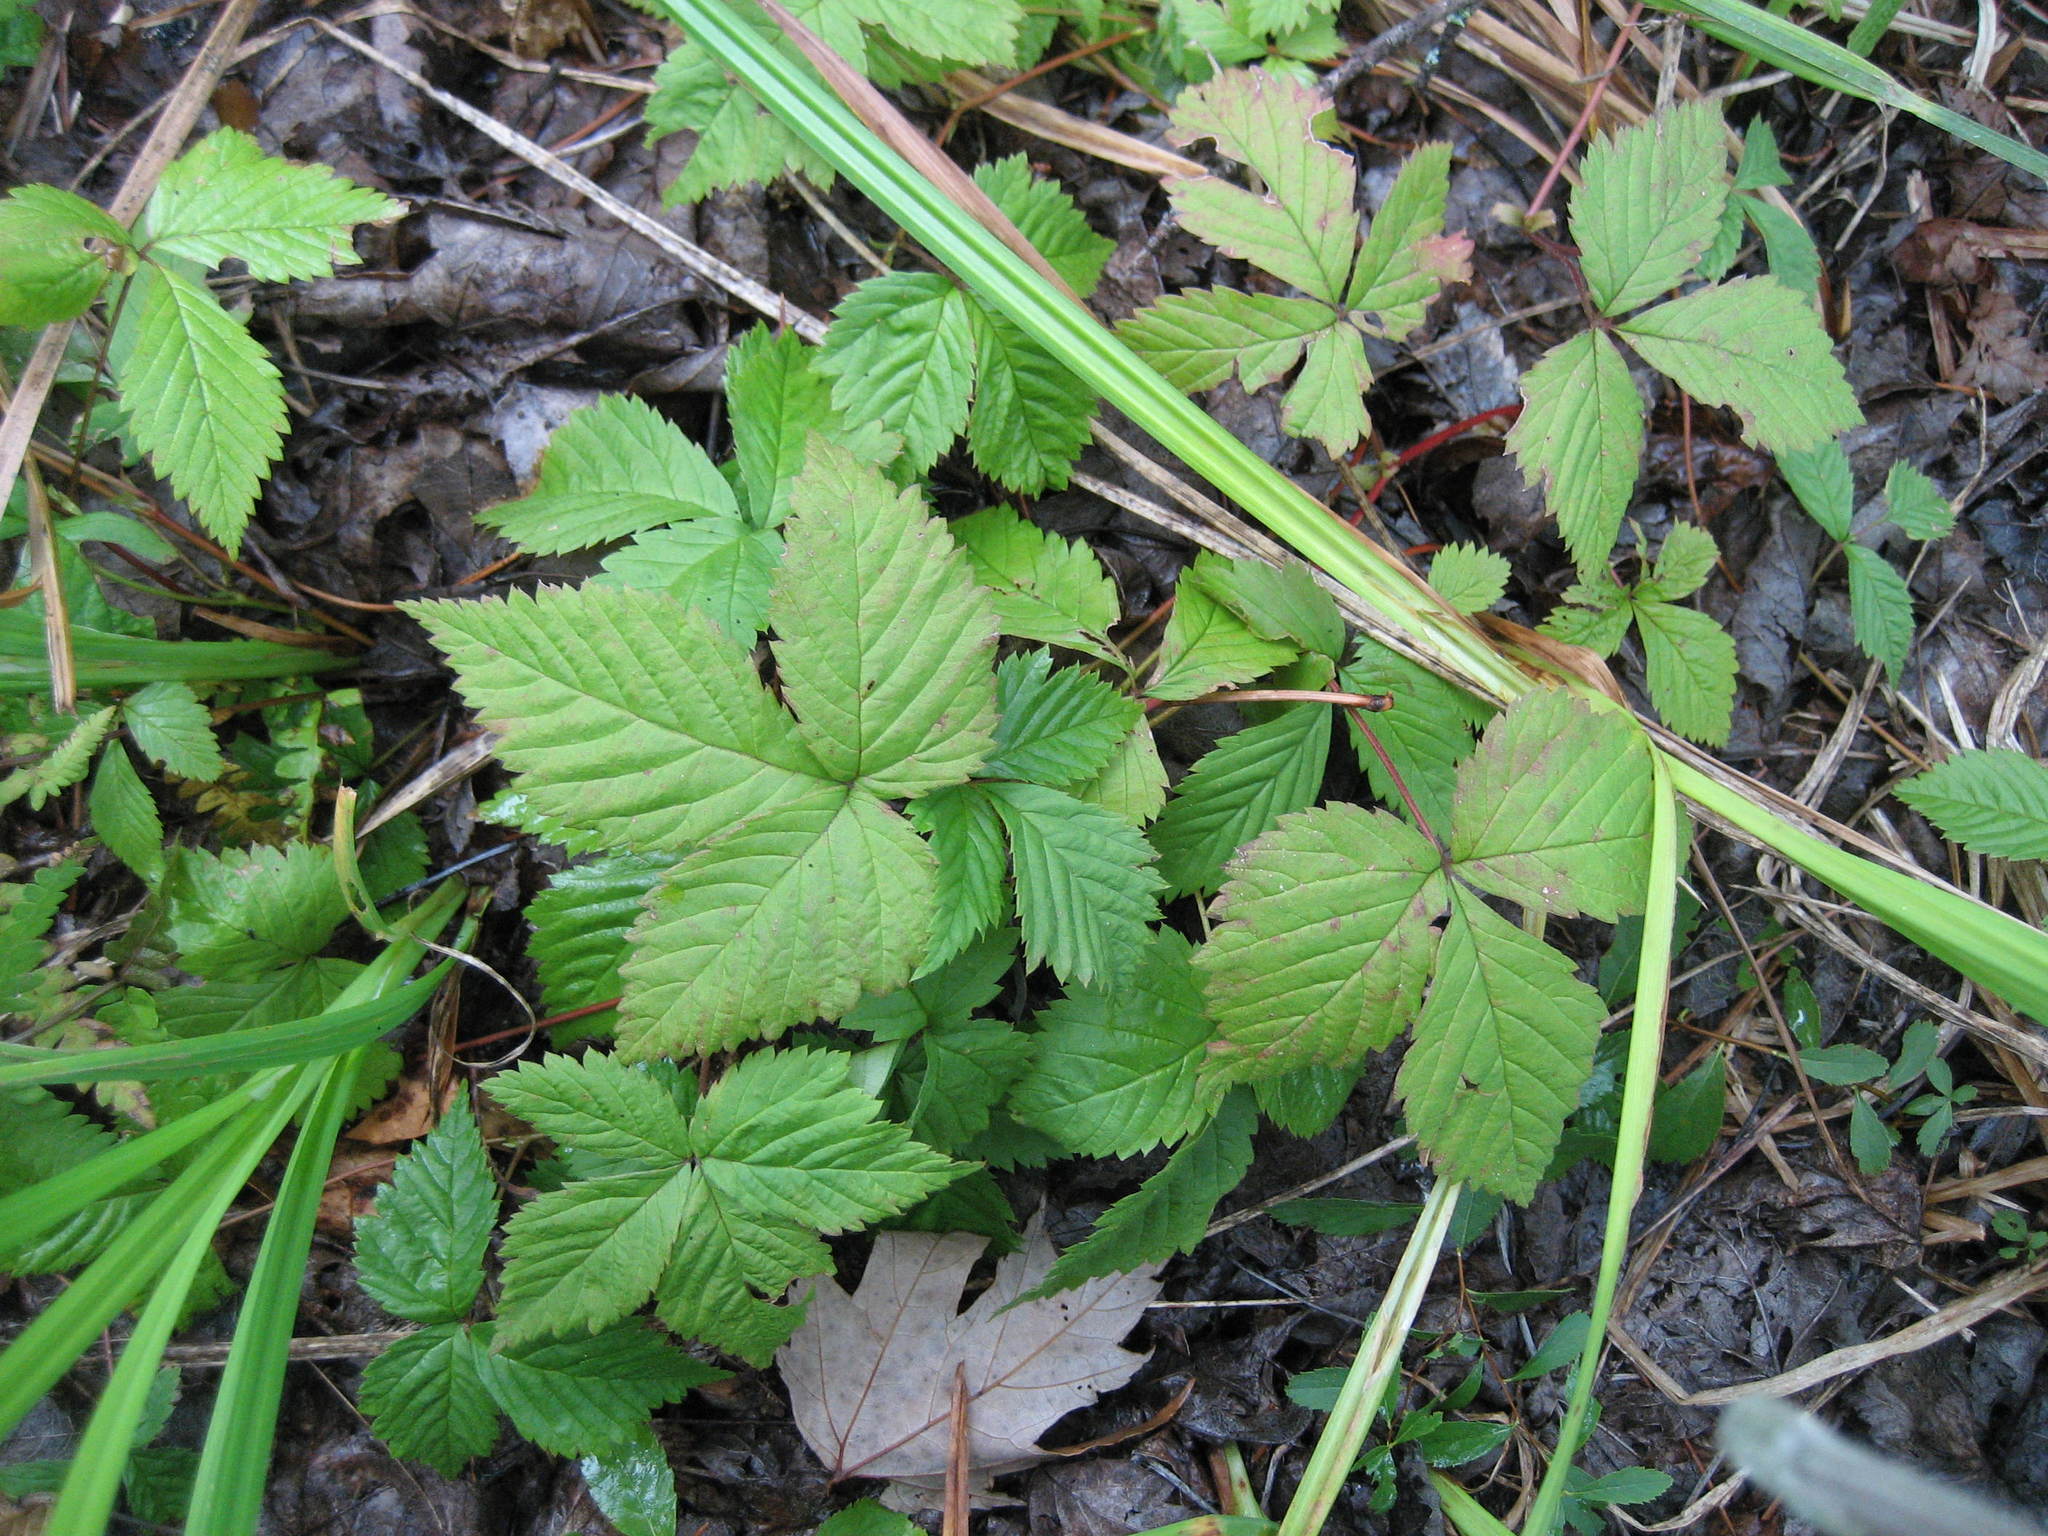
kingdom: Plantae
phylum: Tracheophyta
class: Magnoliopsida
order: Rosales
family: Rosaceae
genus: Rubus
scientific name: Rubus pubescens
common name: Dwarf raspberry
